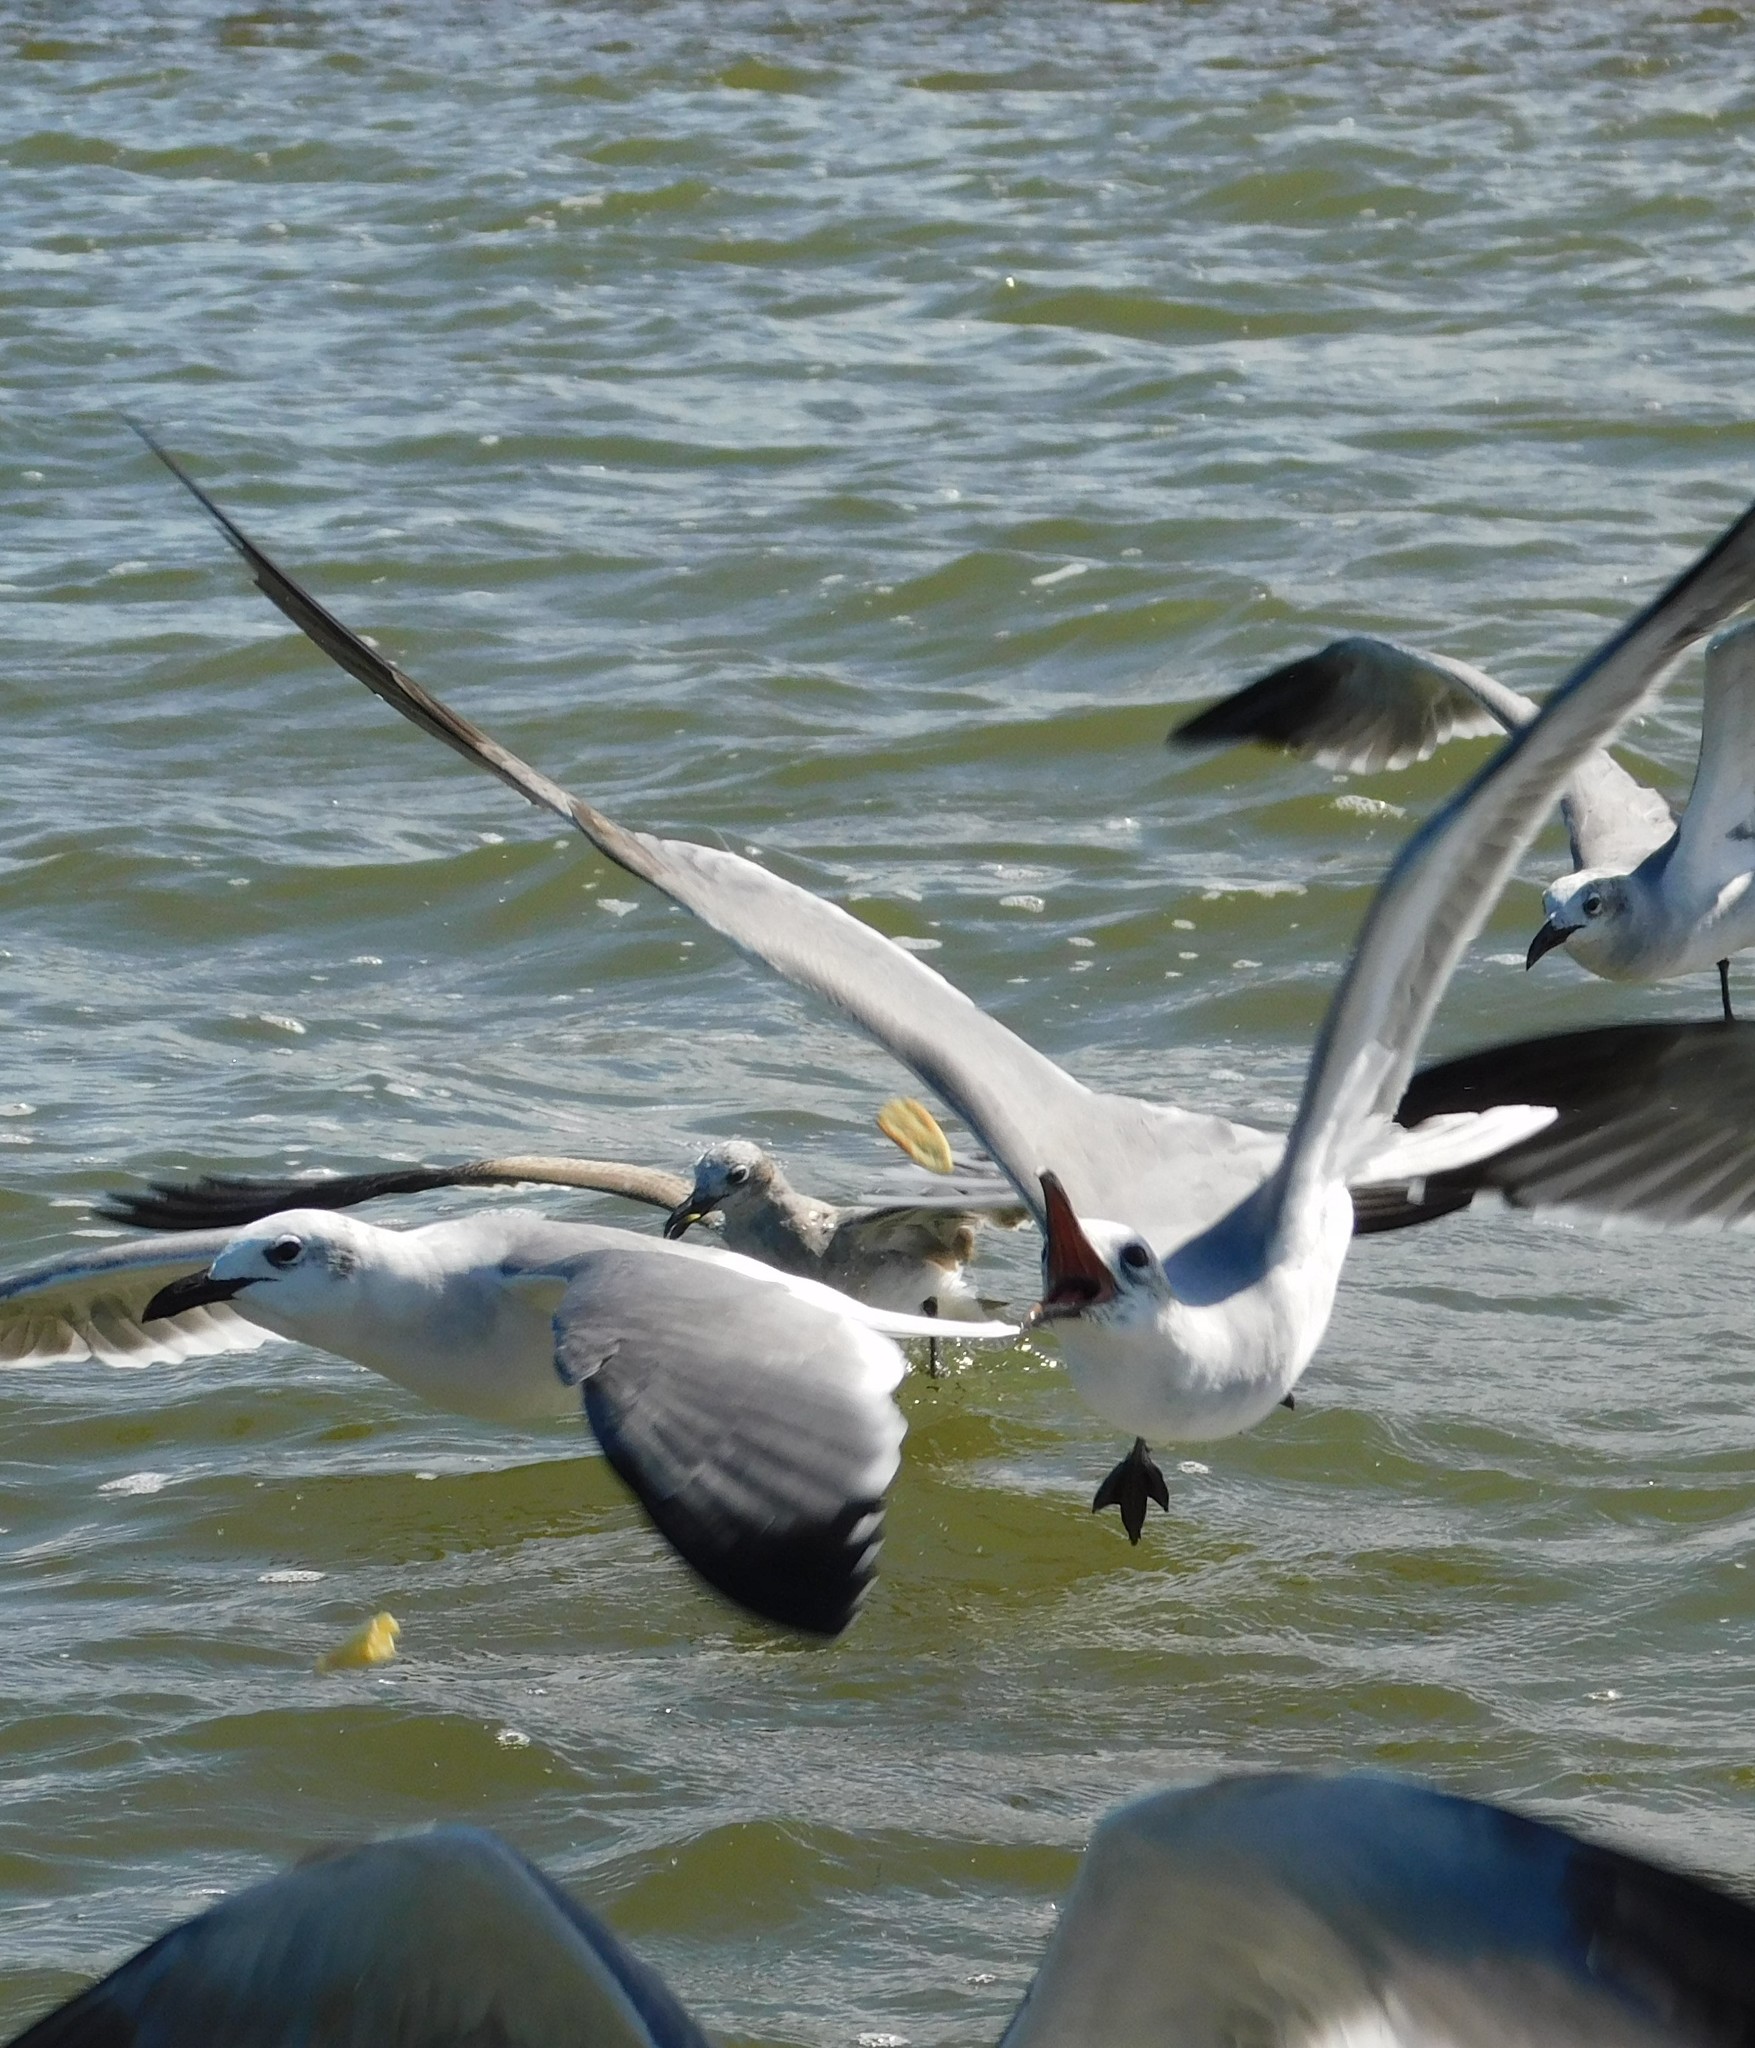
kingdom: Animalia
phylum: Chordata
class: Aves
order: Charadriiformes
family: Laridae
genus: Leucophaeus
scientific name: Leucophaeus atricilla
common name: Laughing gull
